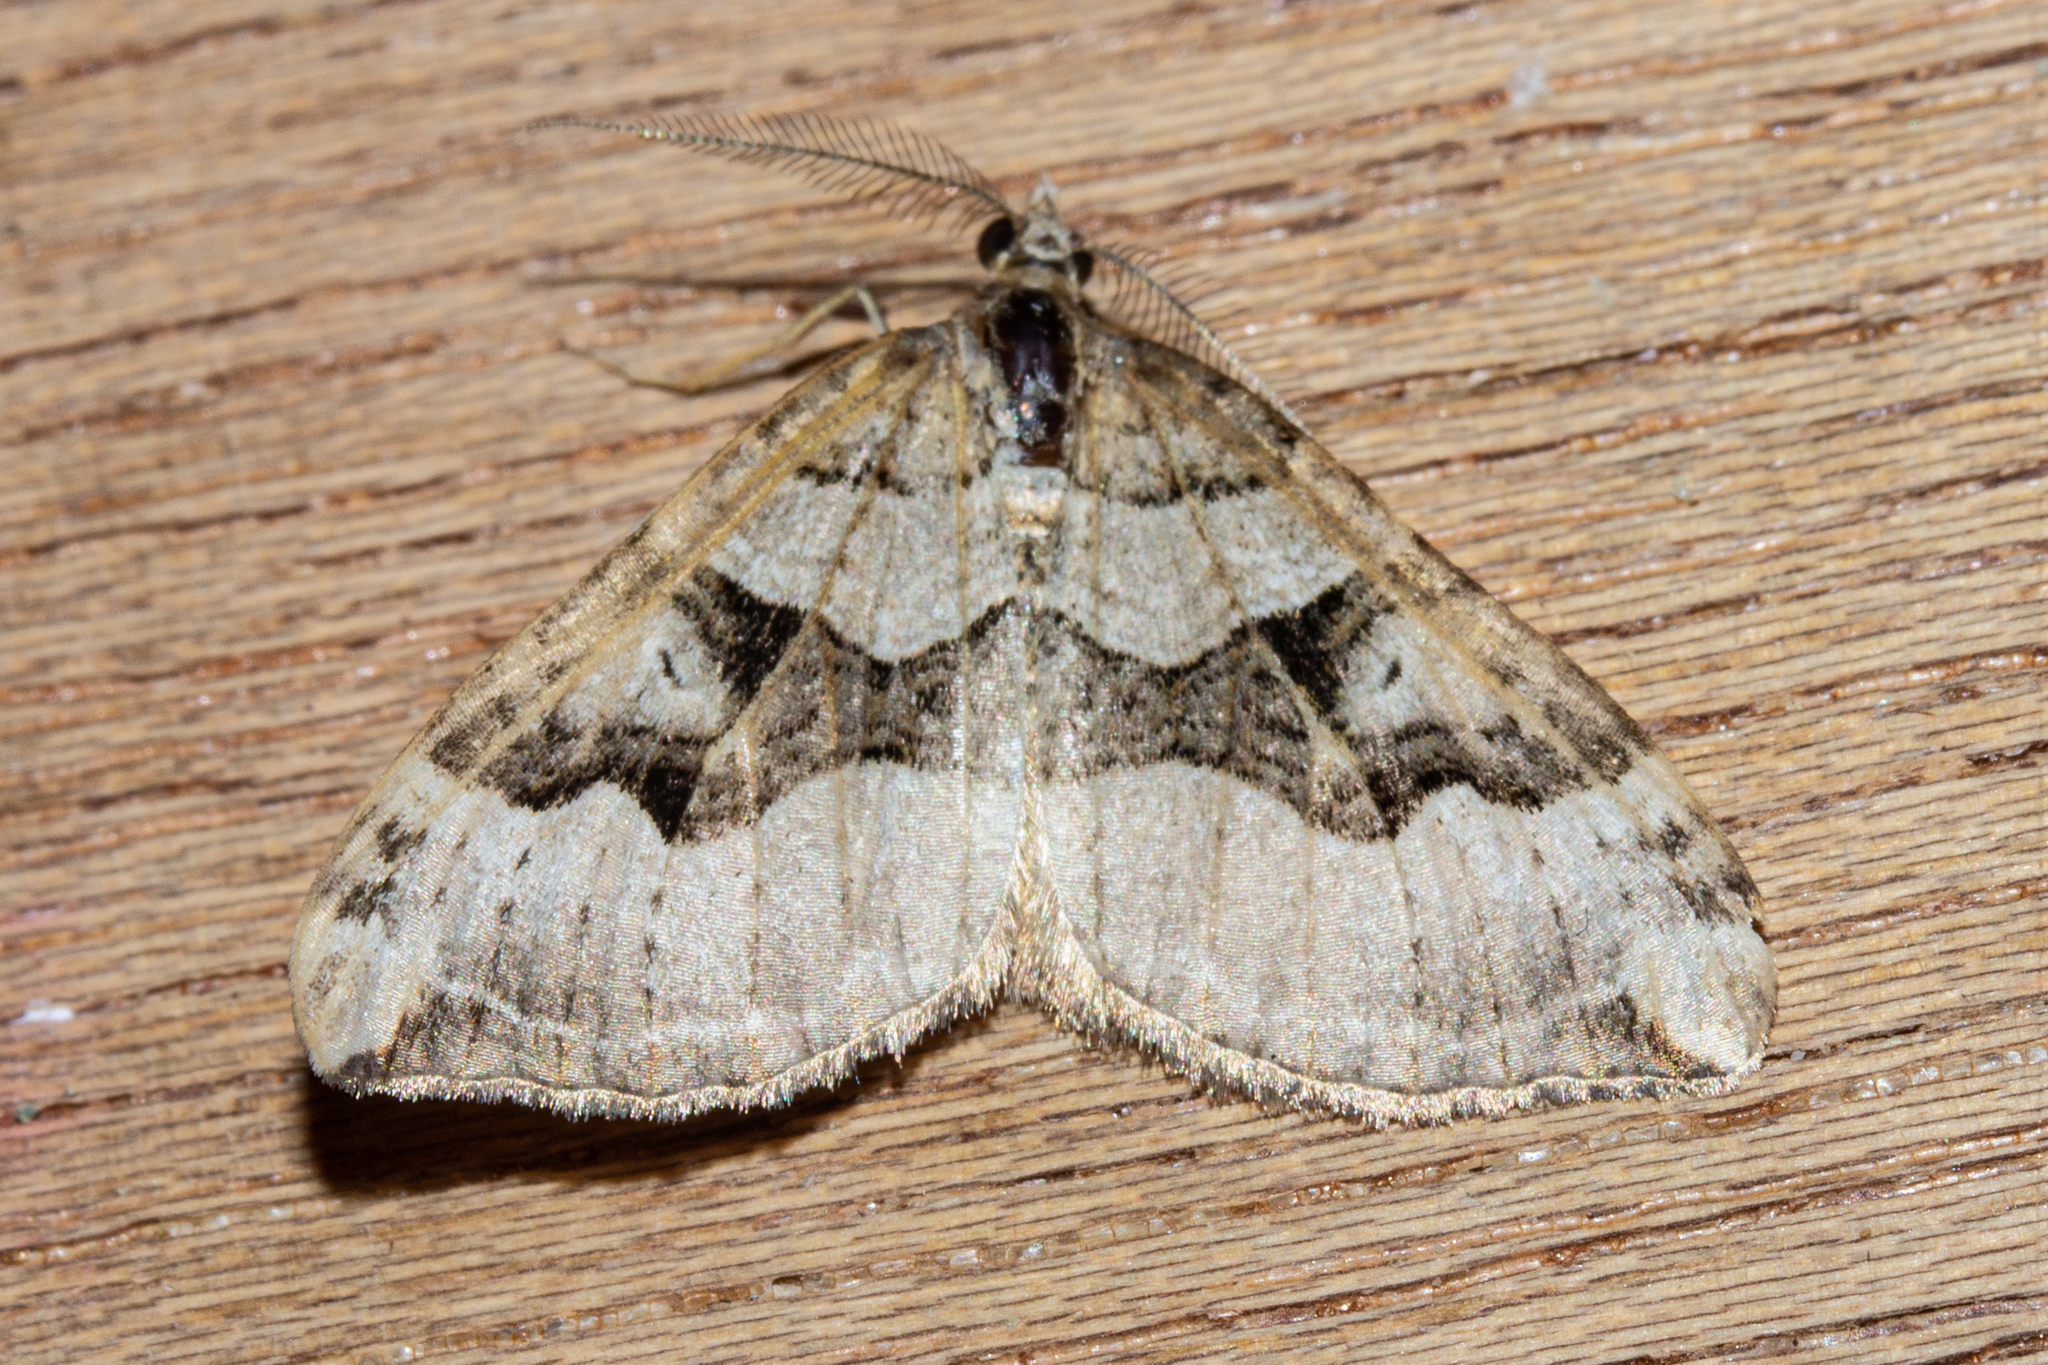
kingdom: Animalia
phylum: Arthropoda
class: Insecta
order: Lepidoptera
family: Geometridae
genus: Xanthorhoe
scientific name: Xanthorhoe semifissata
